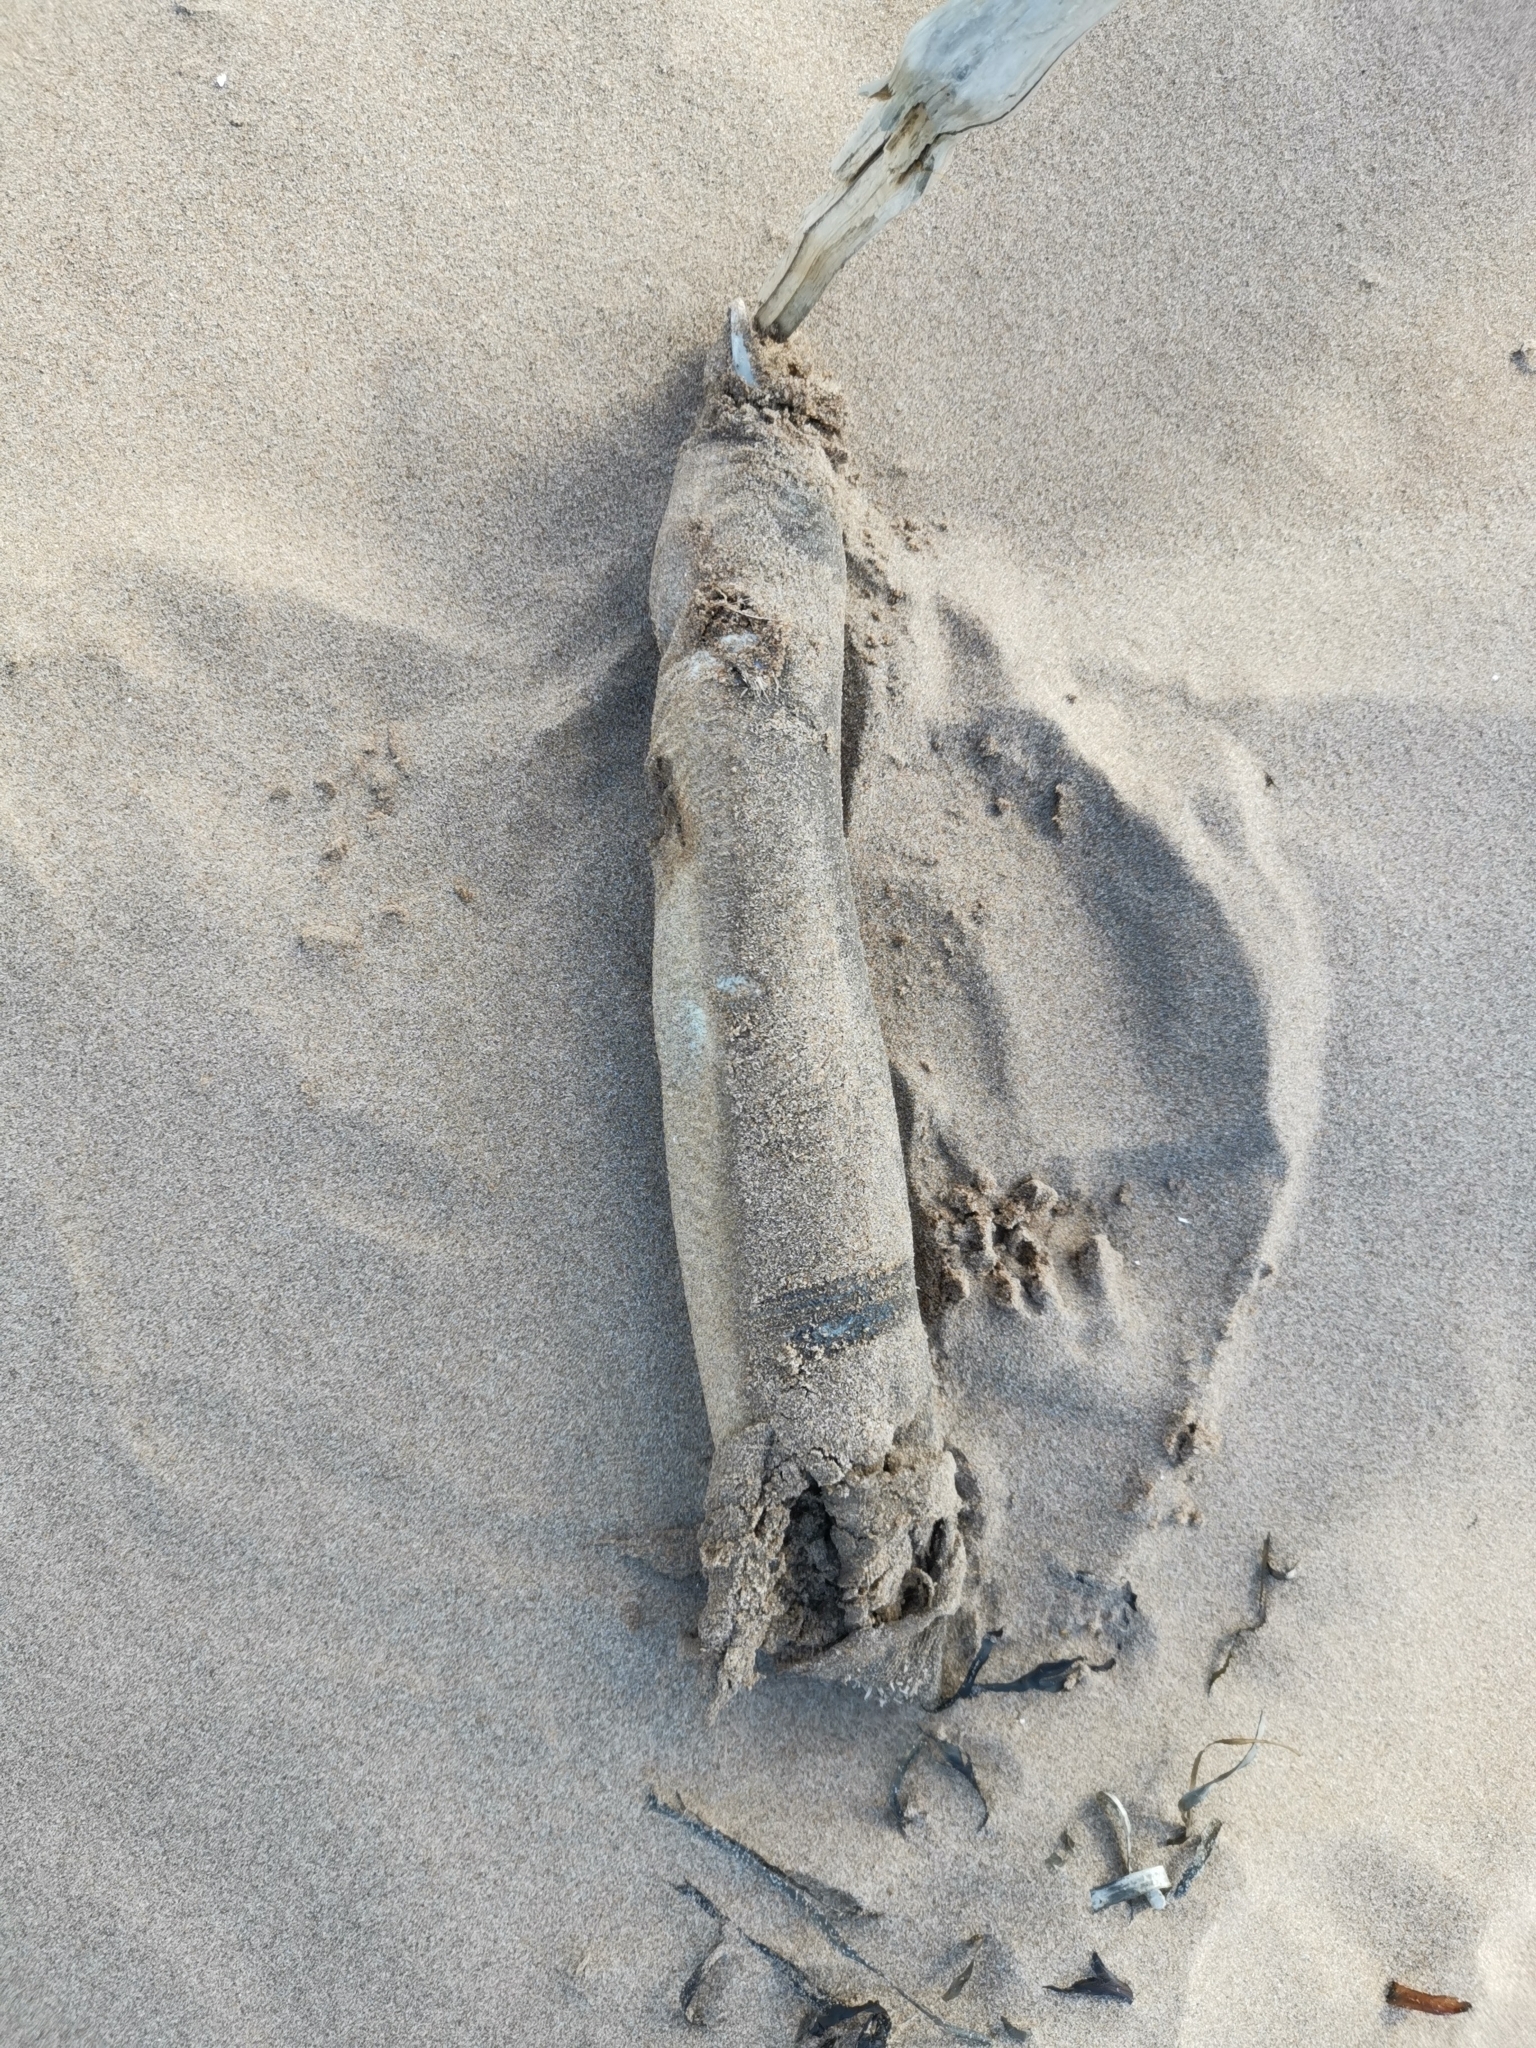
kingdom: Animalia
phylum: Chordata
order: Anguilliformes
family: Anguillidae
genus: Anguilla
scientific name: Anguilla rostrata
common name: American eel
